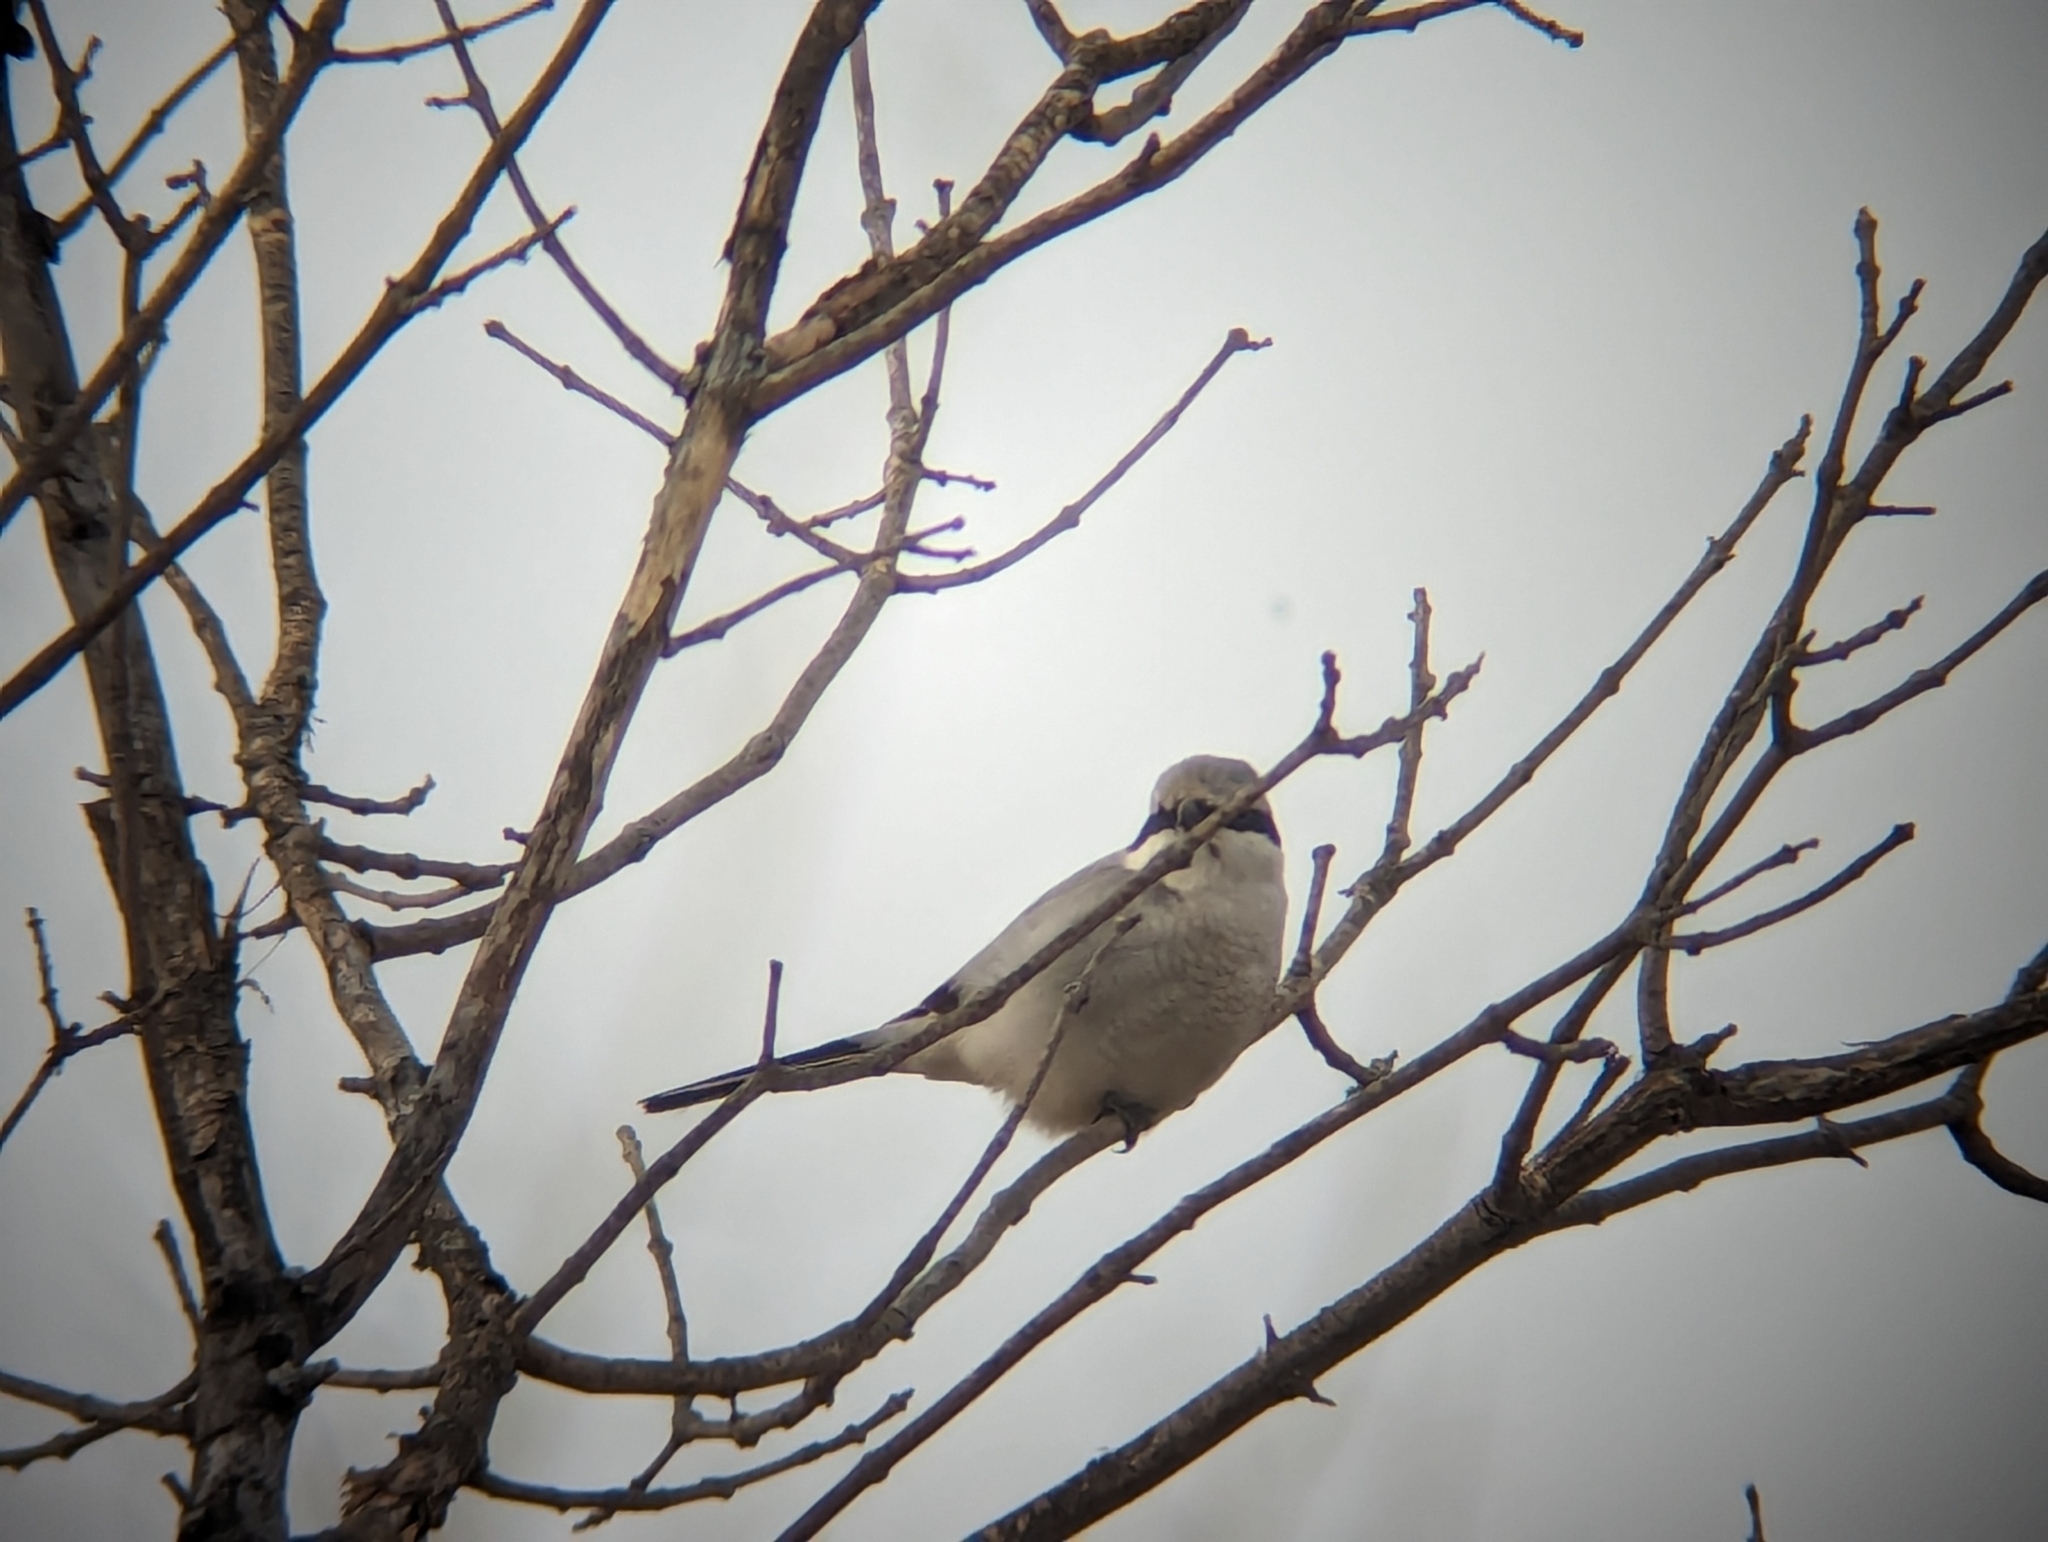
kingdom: Animalia
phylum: Chordata
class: Aves
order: Passeriformes
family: Laniidae
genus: Lanius
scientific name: Lanius borealis
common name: Northern shrike
